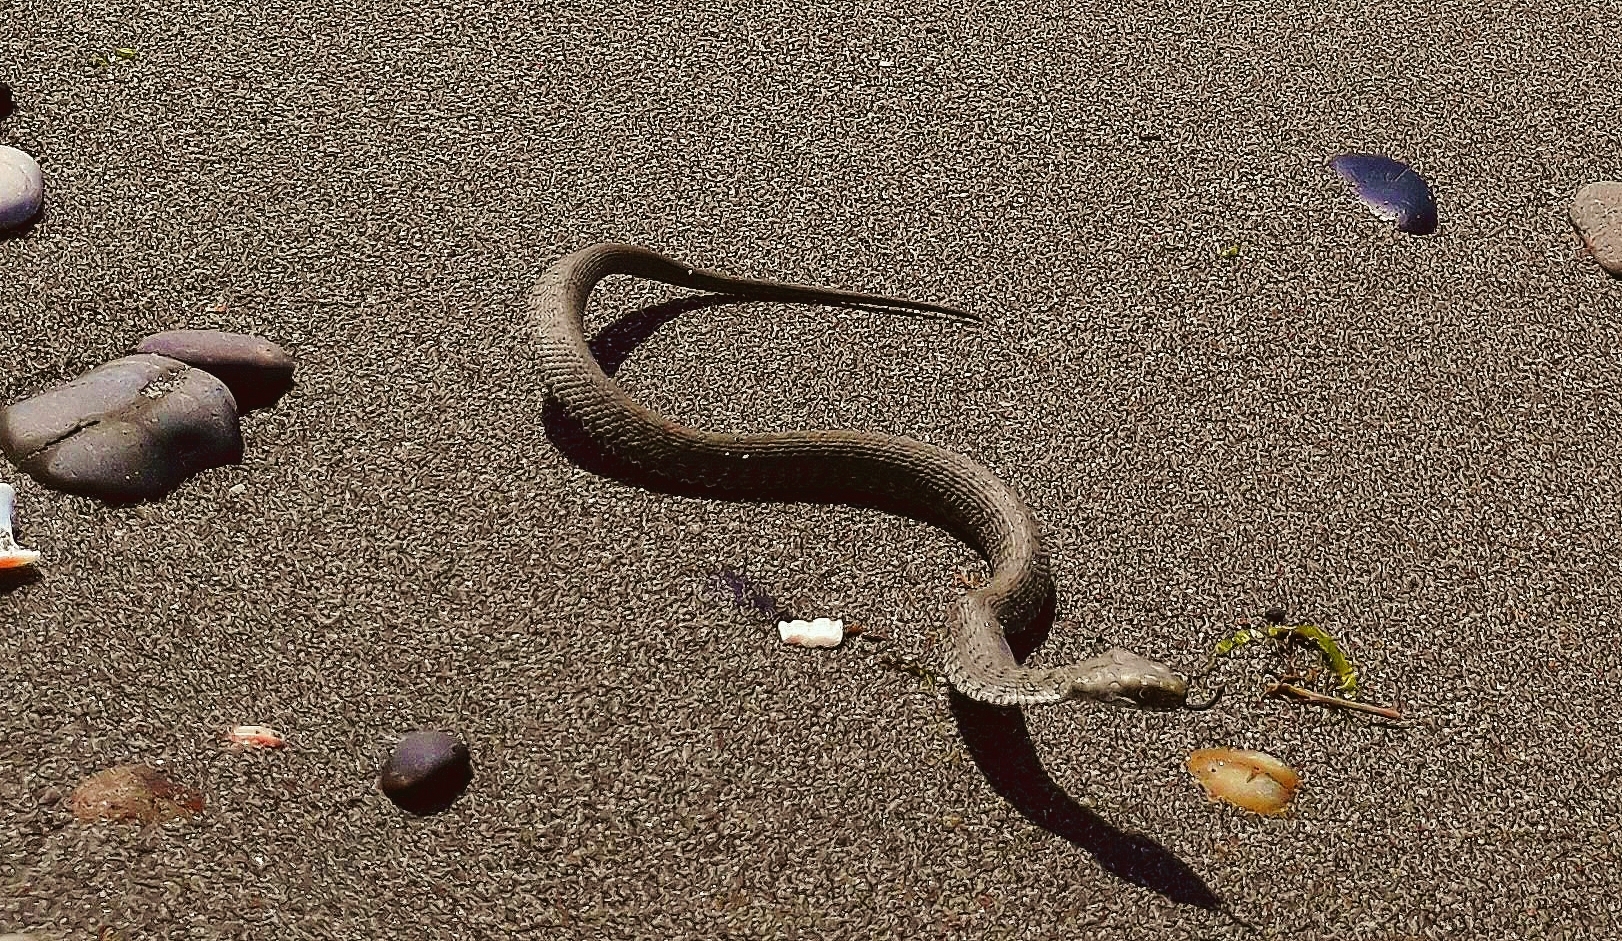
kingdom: Animalia
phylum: Chordata
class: Squamata
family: Colubridae
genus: Natrix
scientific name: Natrix tessellata
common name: Dice snake
